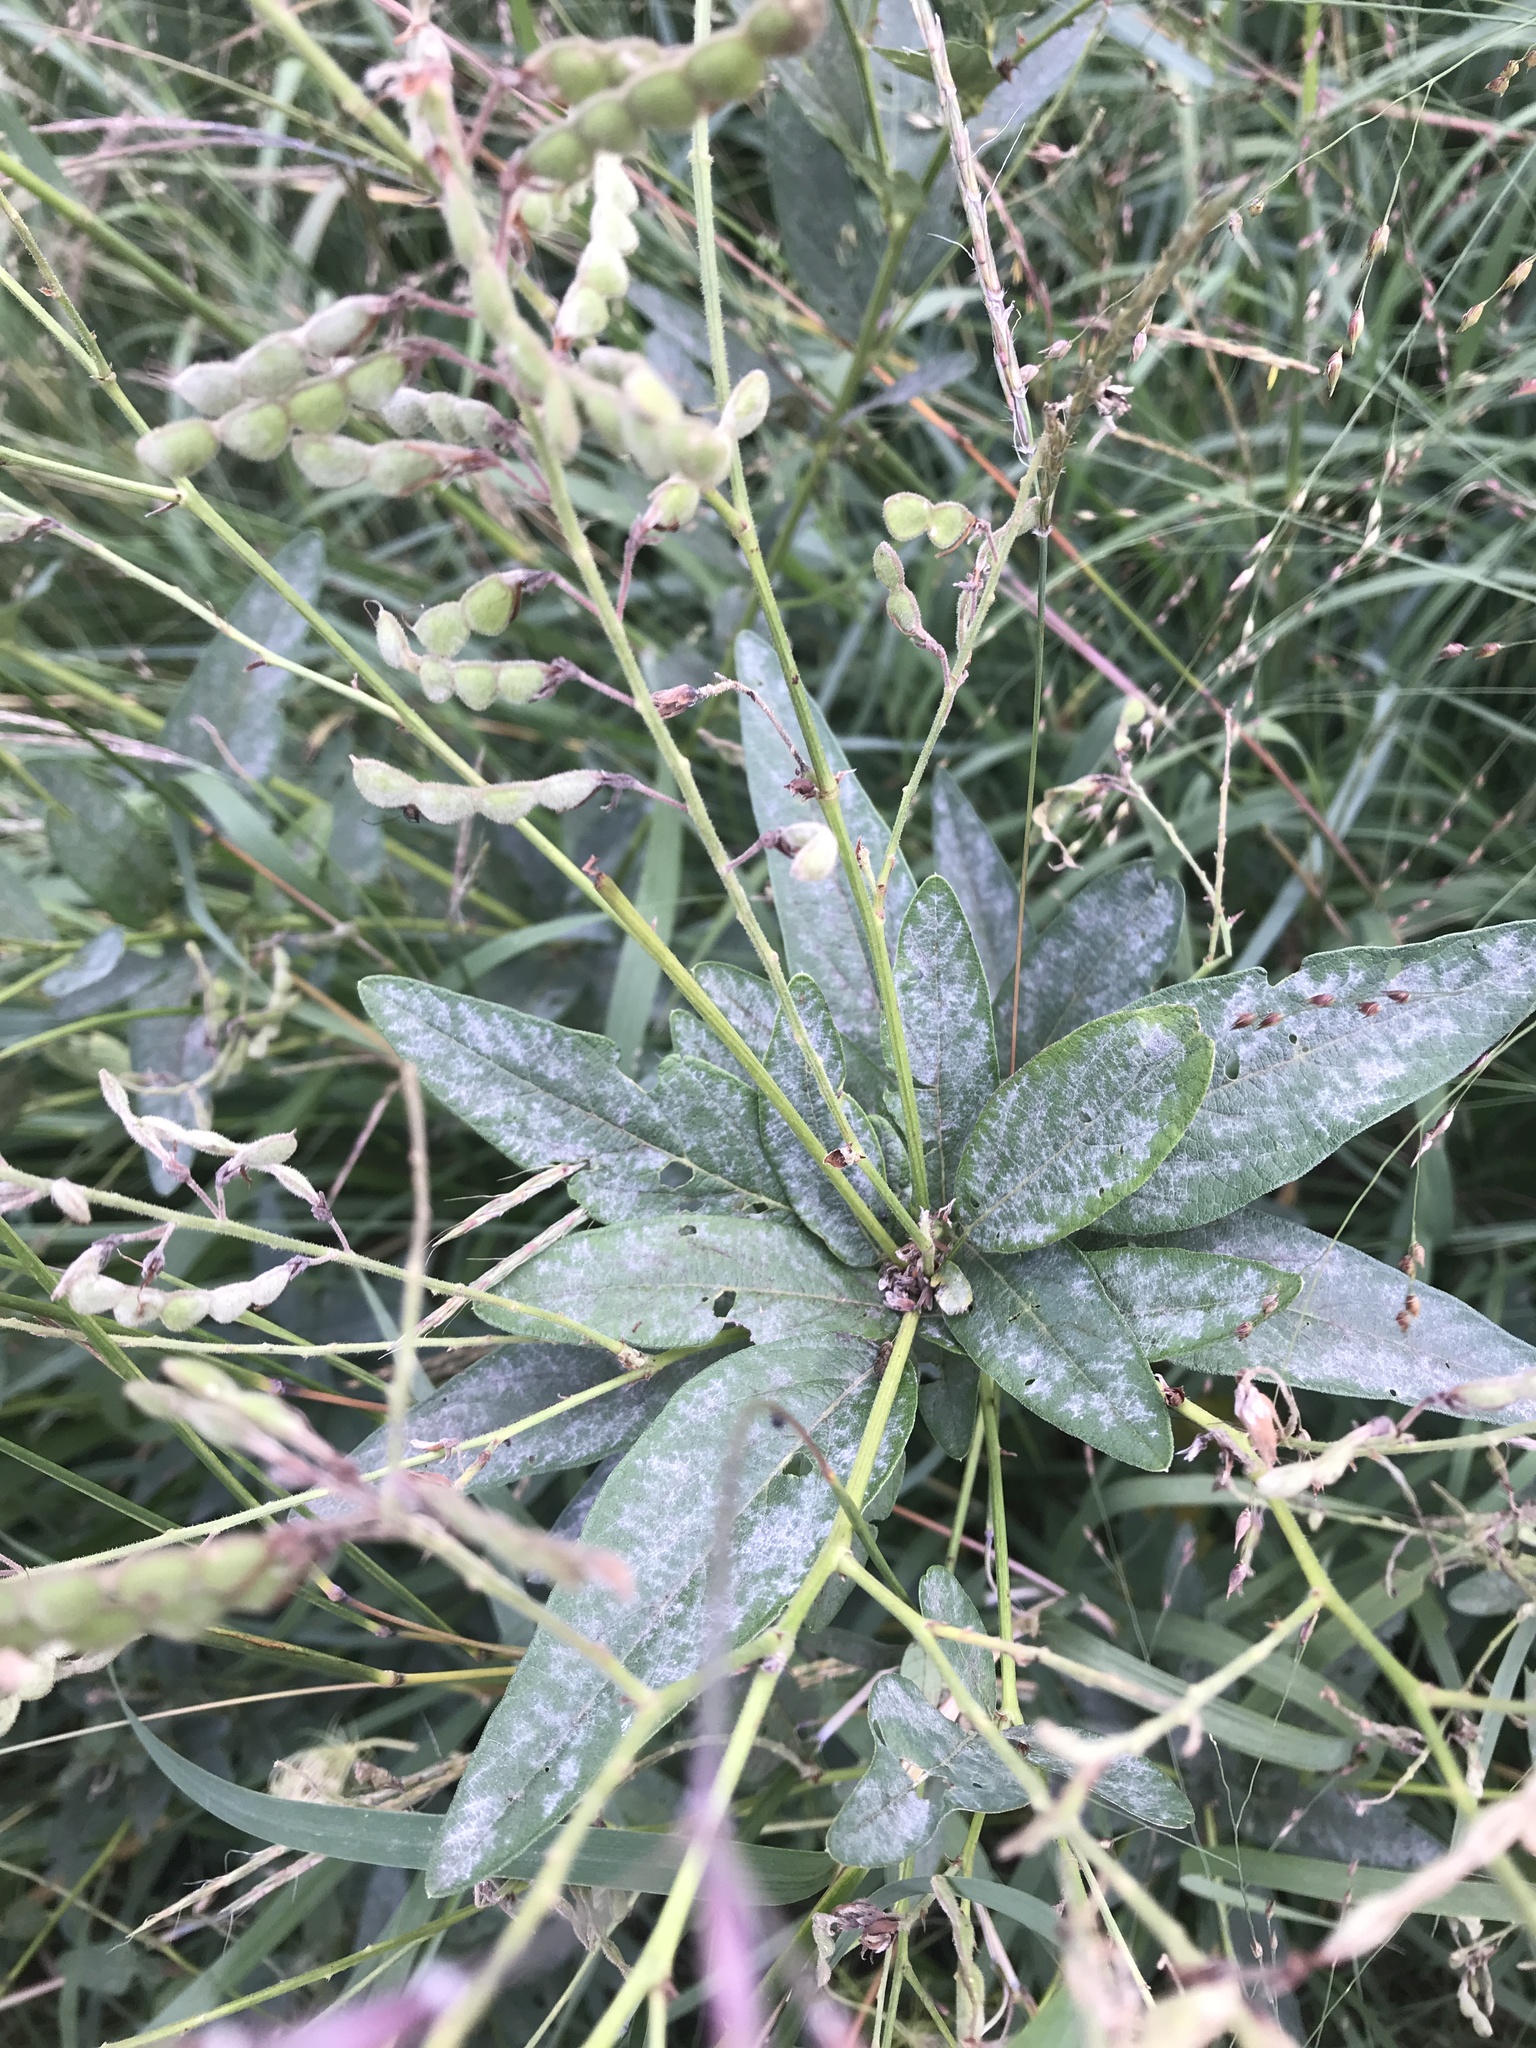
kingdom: Plantae
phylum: Tracheophyta
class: Magnoliopsida
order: Fabales
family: Fabaceae
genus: Desmodium
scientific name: Desmodium canadense
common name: Canada tick-trefoil
